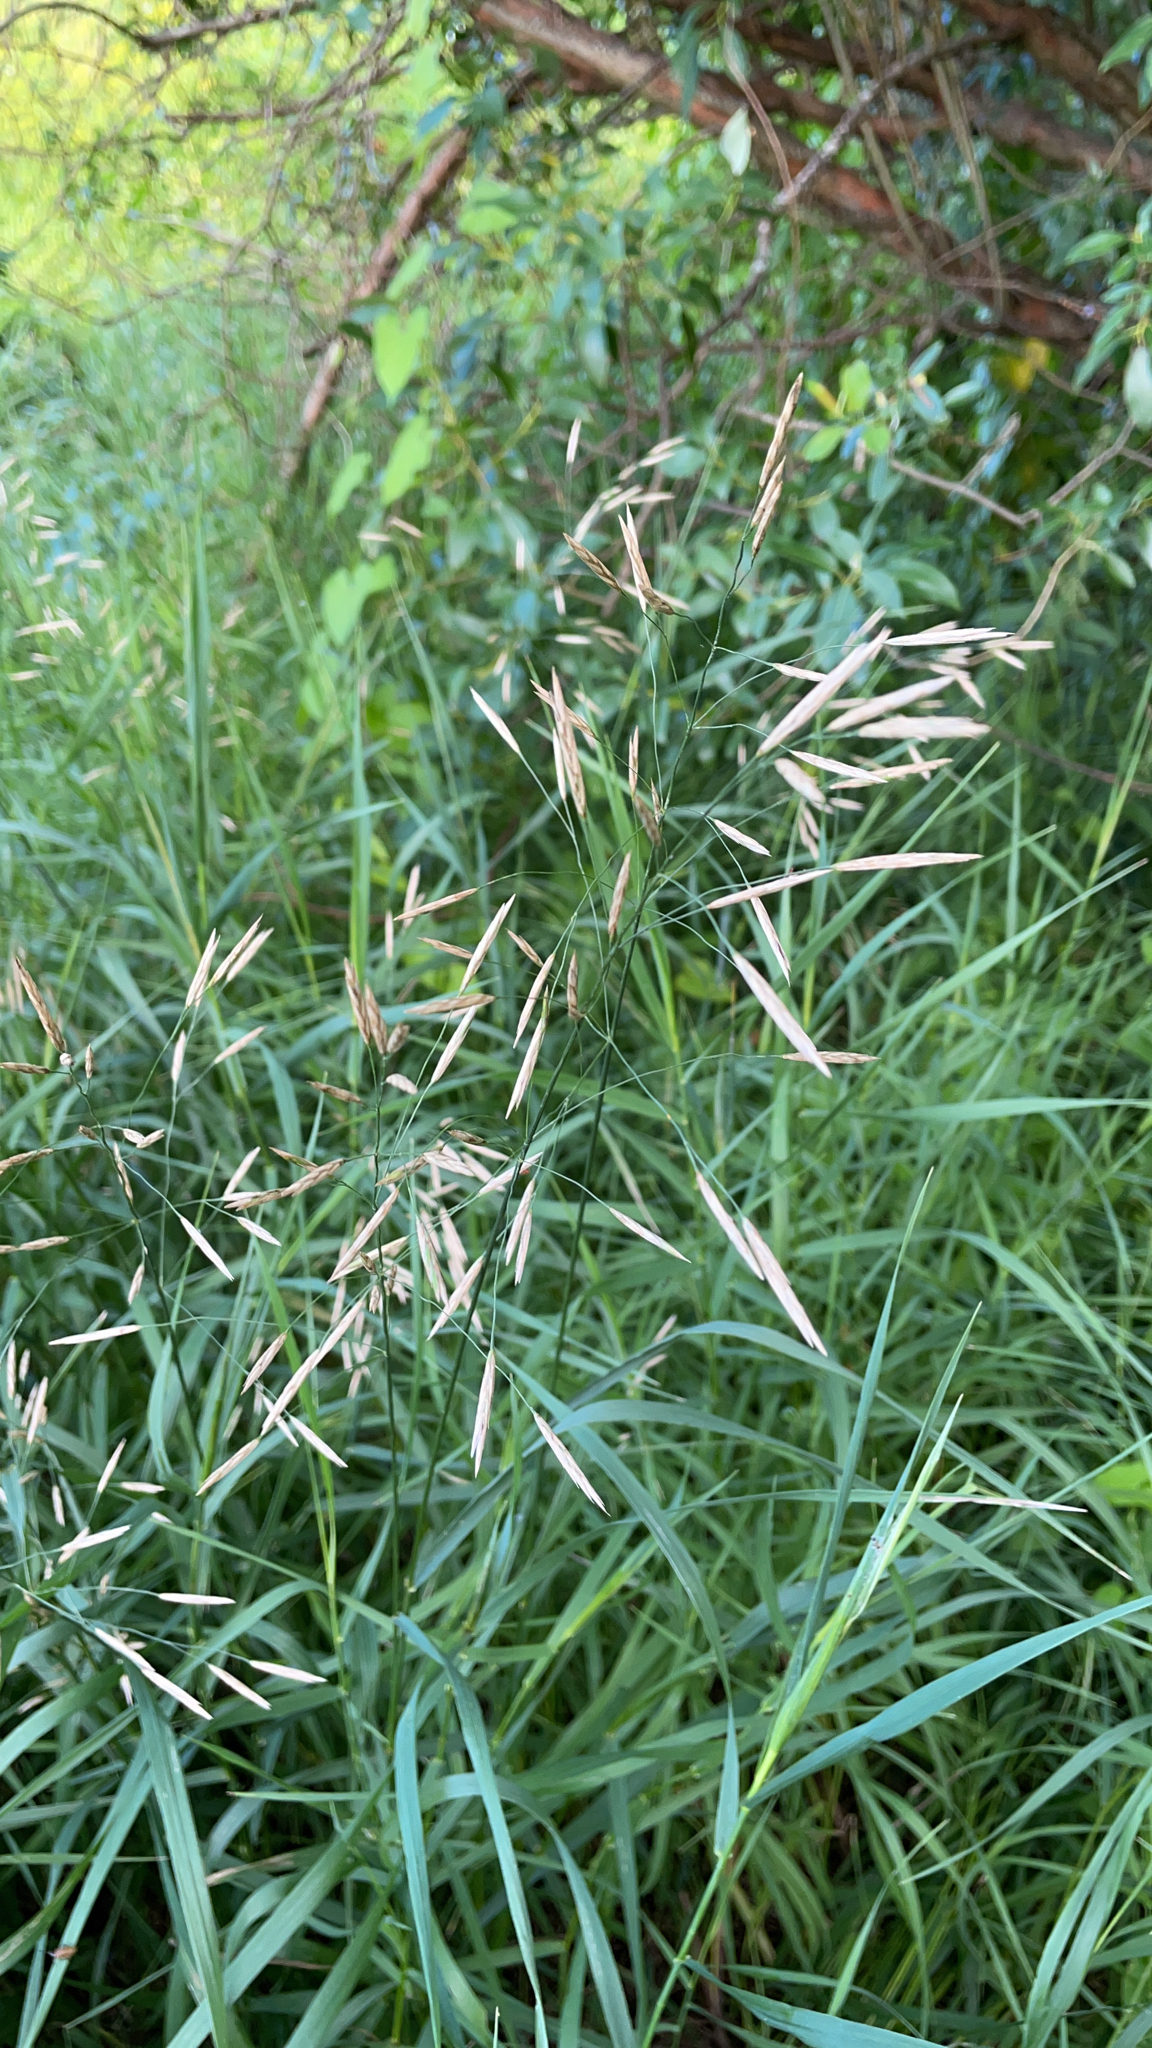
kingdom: Plantae
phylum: Tracheophyta
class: Liliopsida
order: Poales
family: Poaceae
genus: Bromus
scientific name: Bromus inermis
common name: Smooth brome
